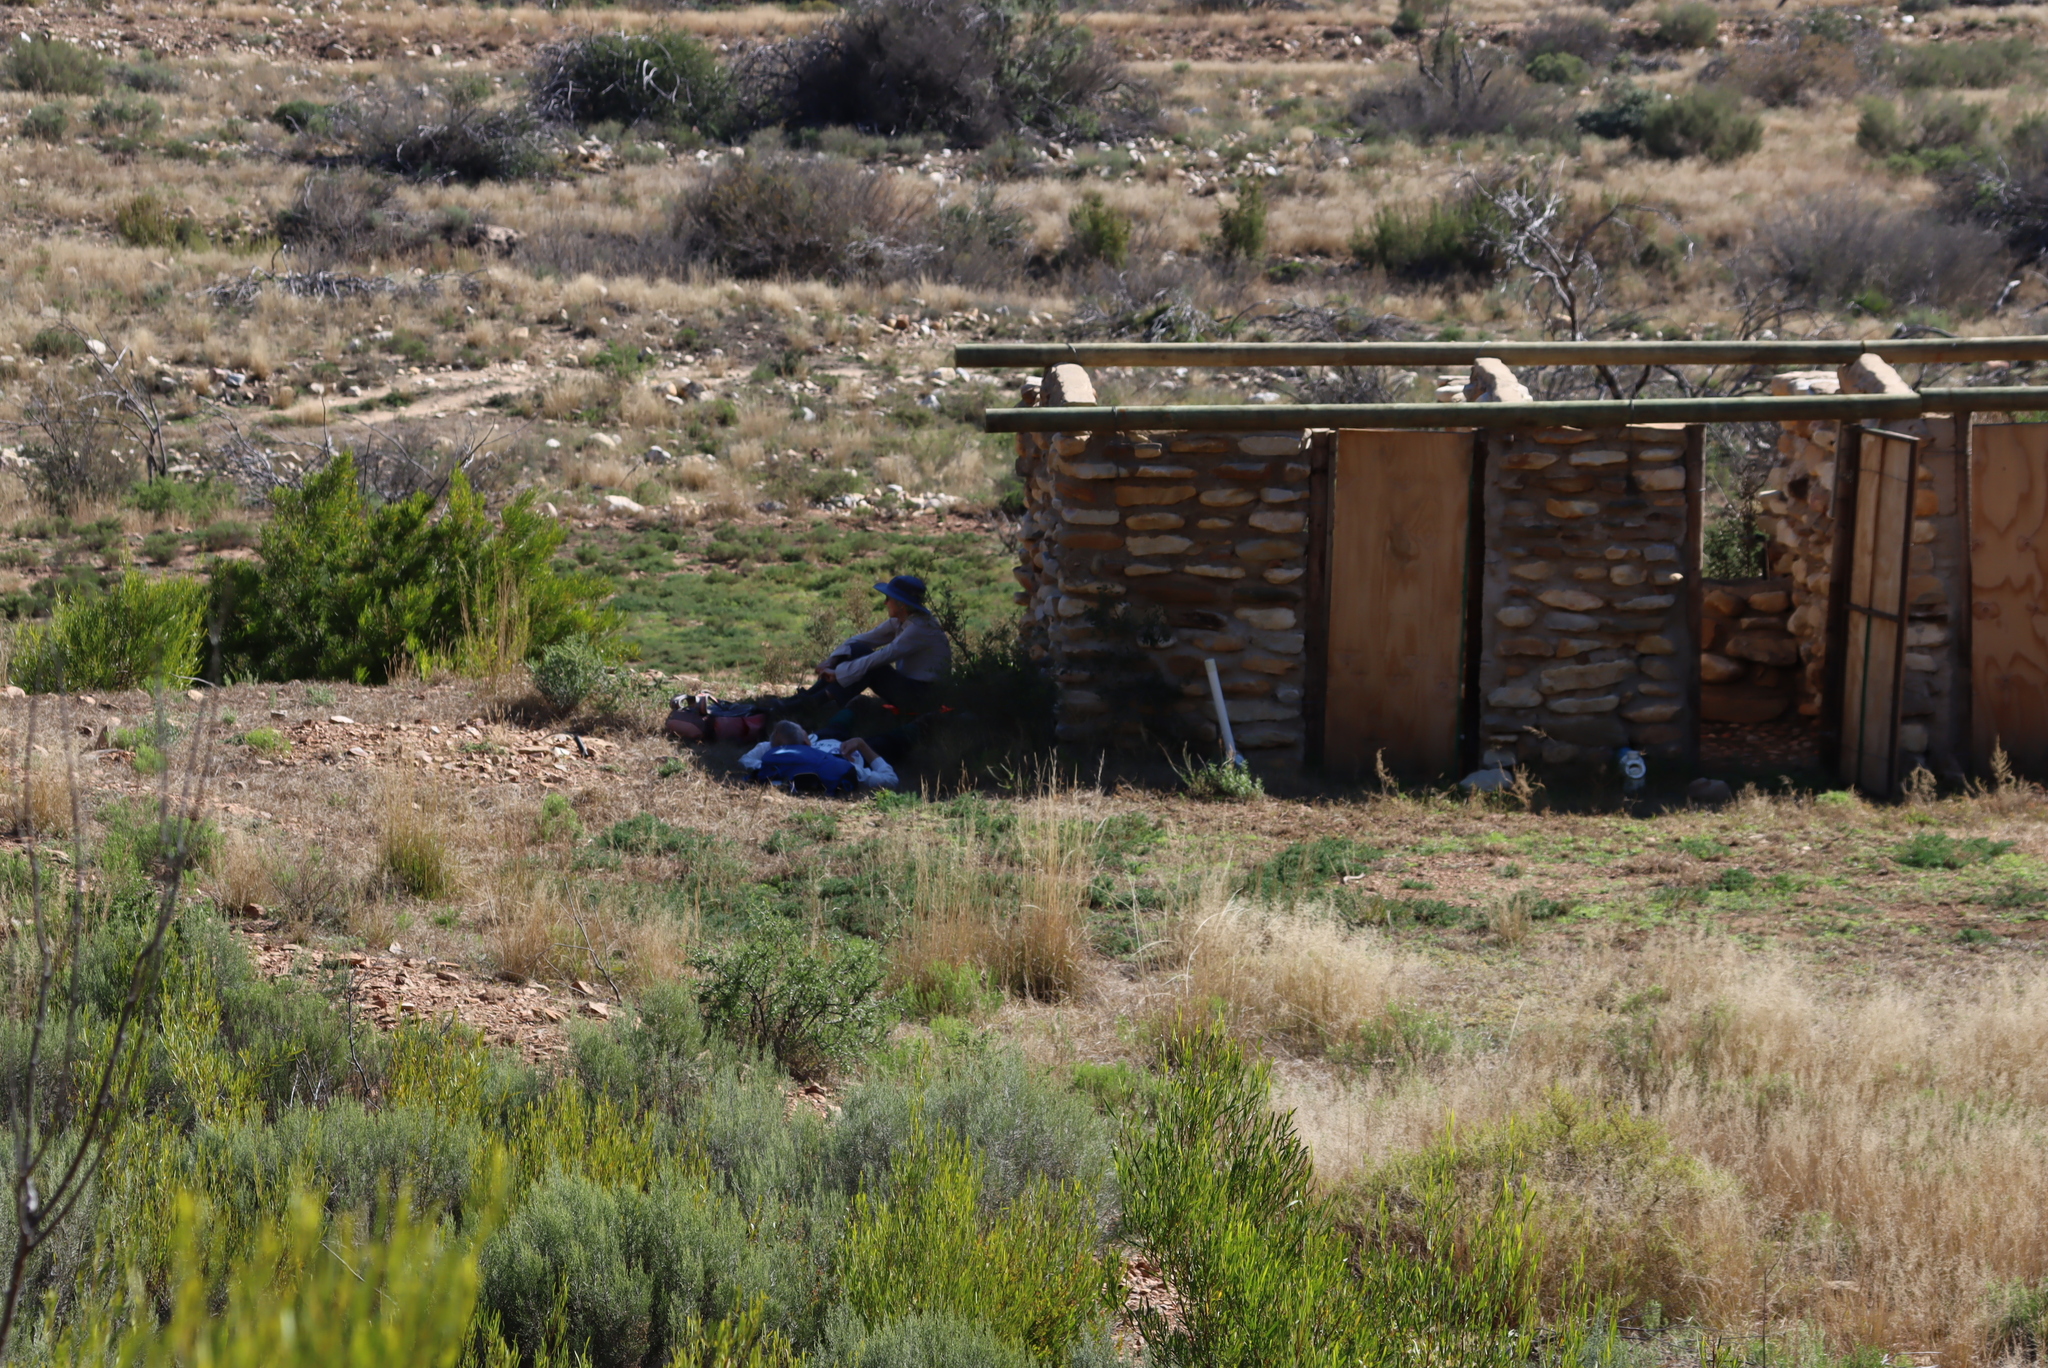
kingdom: Plantae
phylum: Tracheophyta
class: Magnoliopsida
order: Asterales
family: Asteraceae
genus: Dicerothamnus
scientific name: Dicerothamnus rhinocerotis
